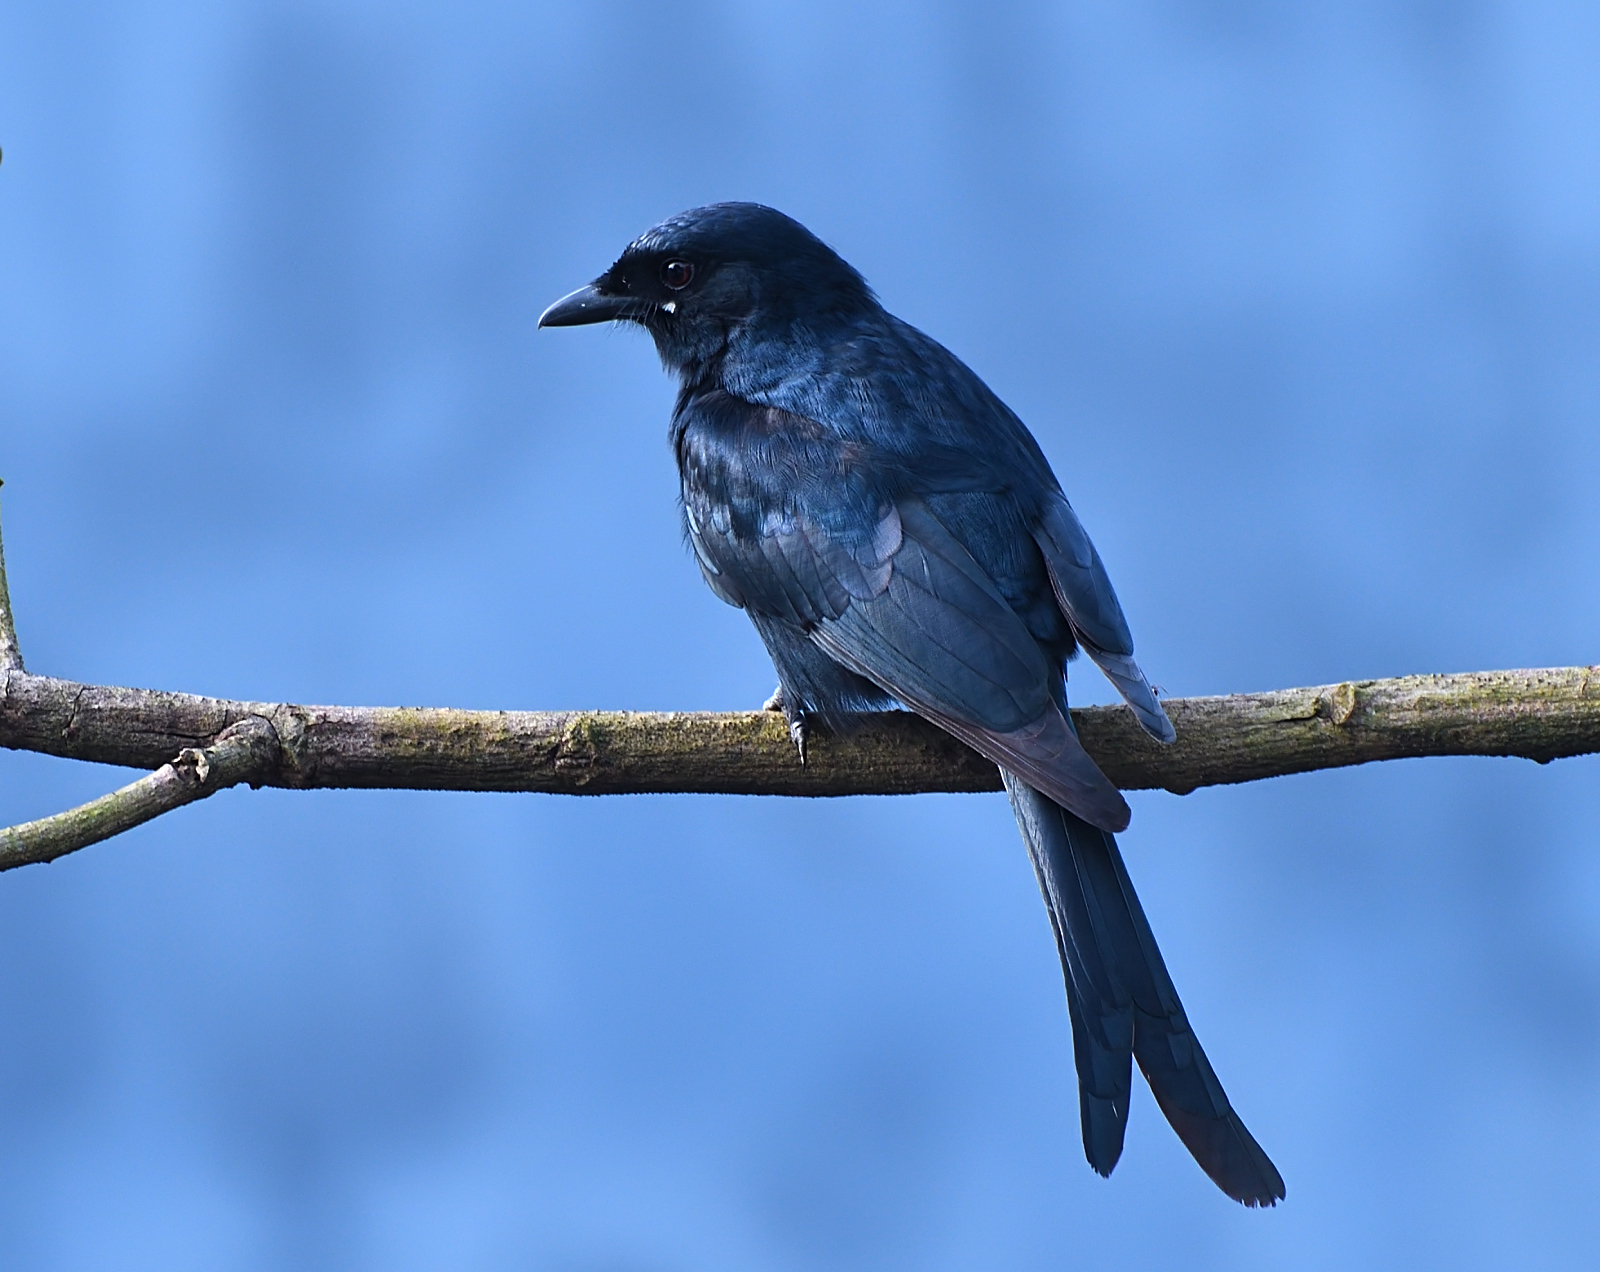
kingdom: Animalia
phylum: Chordata
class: Aves
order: Passeriformes
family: Dicruridae
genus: Dicrurus
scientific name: Dicrurus macrocercus
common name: Black drongo
